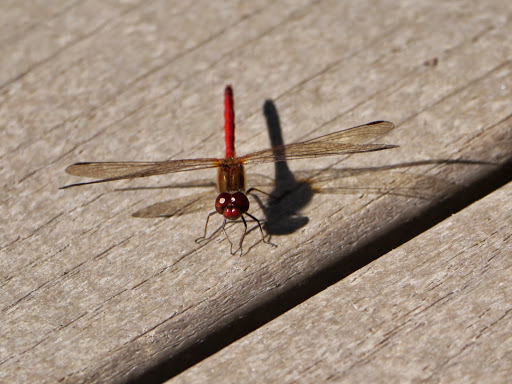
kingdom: Animalia
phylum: Arthropoda
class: Insecta
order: Odonata
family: Libellulidae
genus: Sympetrum
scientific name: Sympetrum vicinum
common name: Autumn meadowhawk
